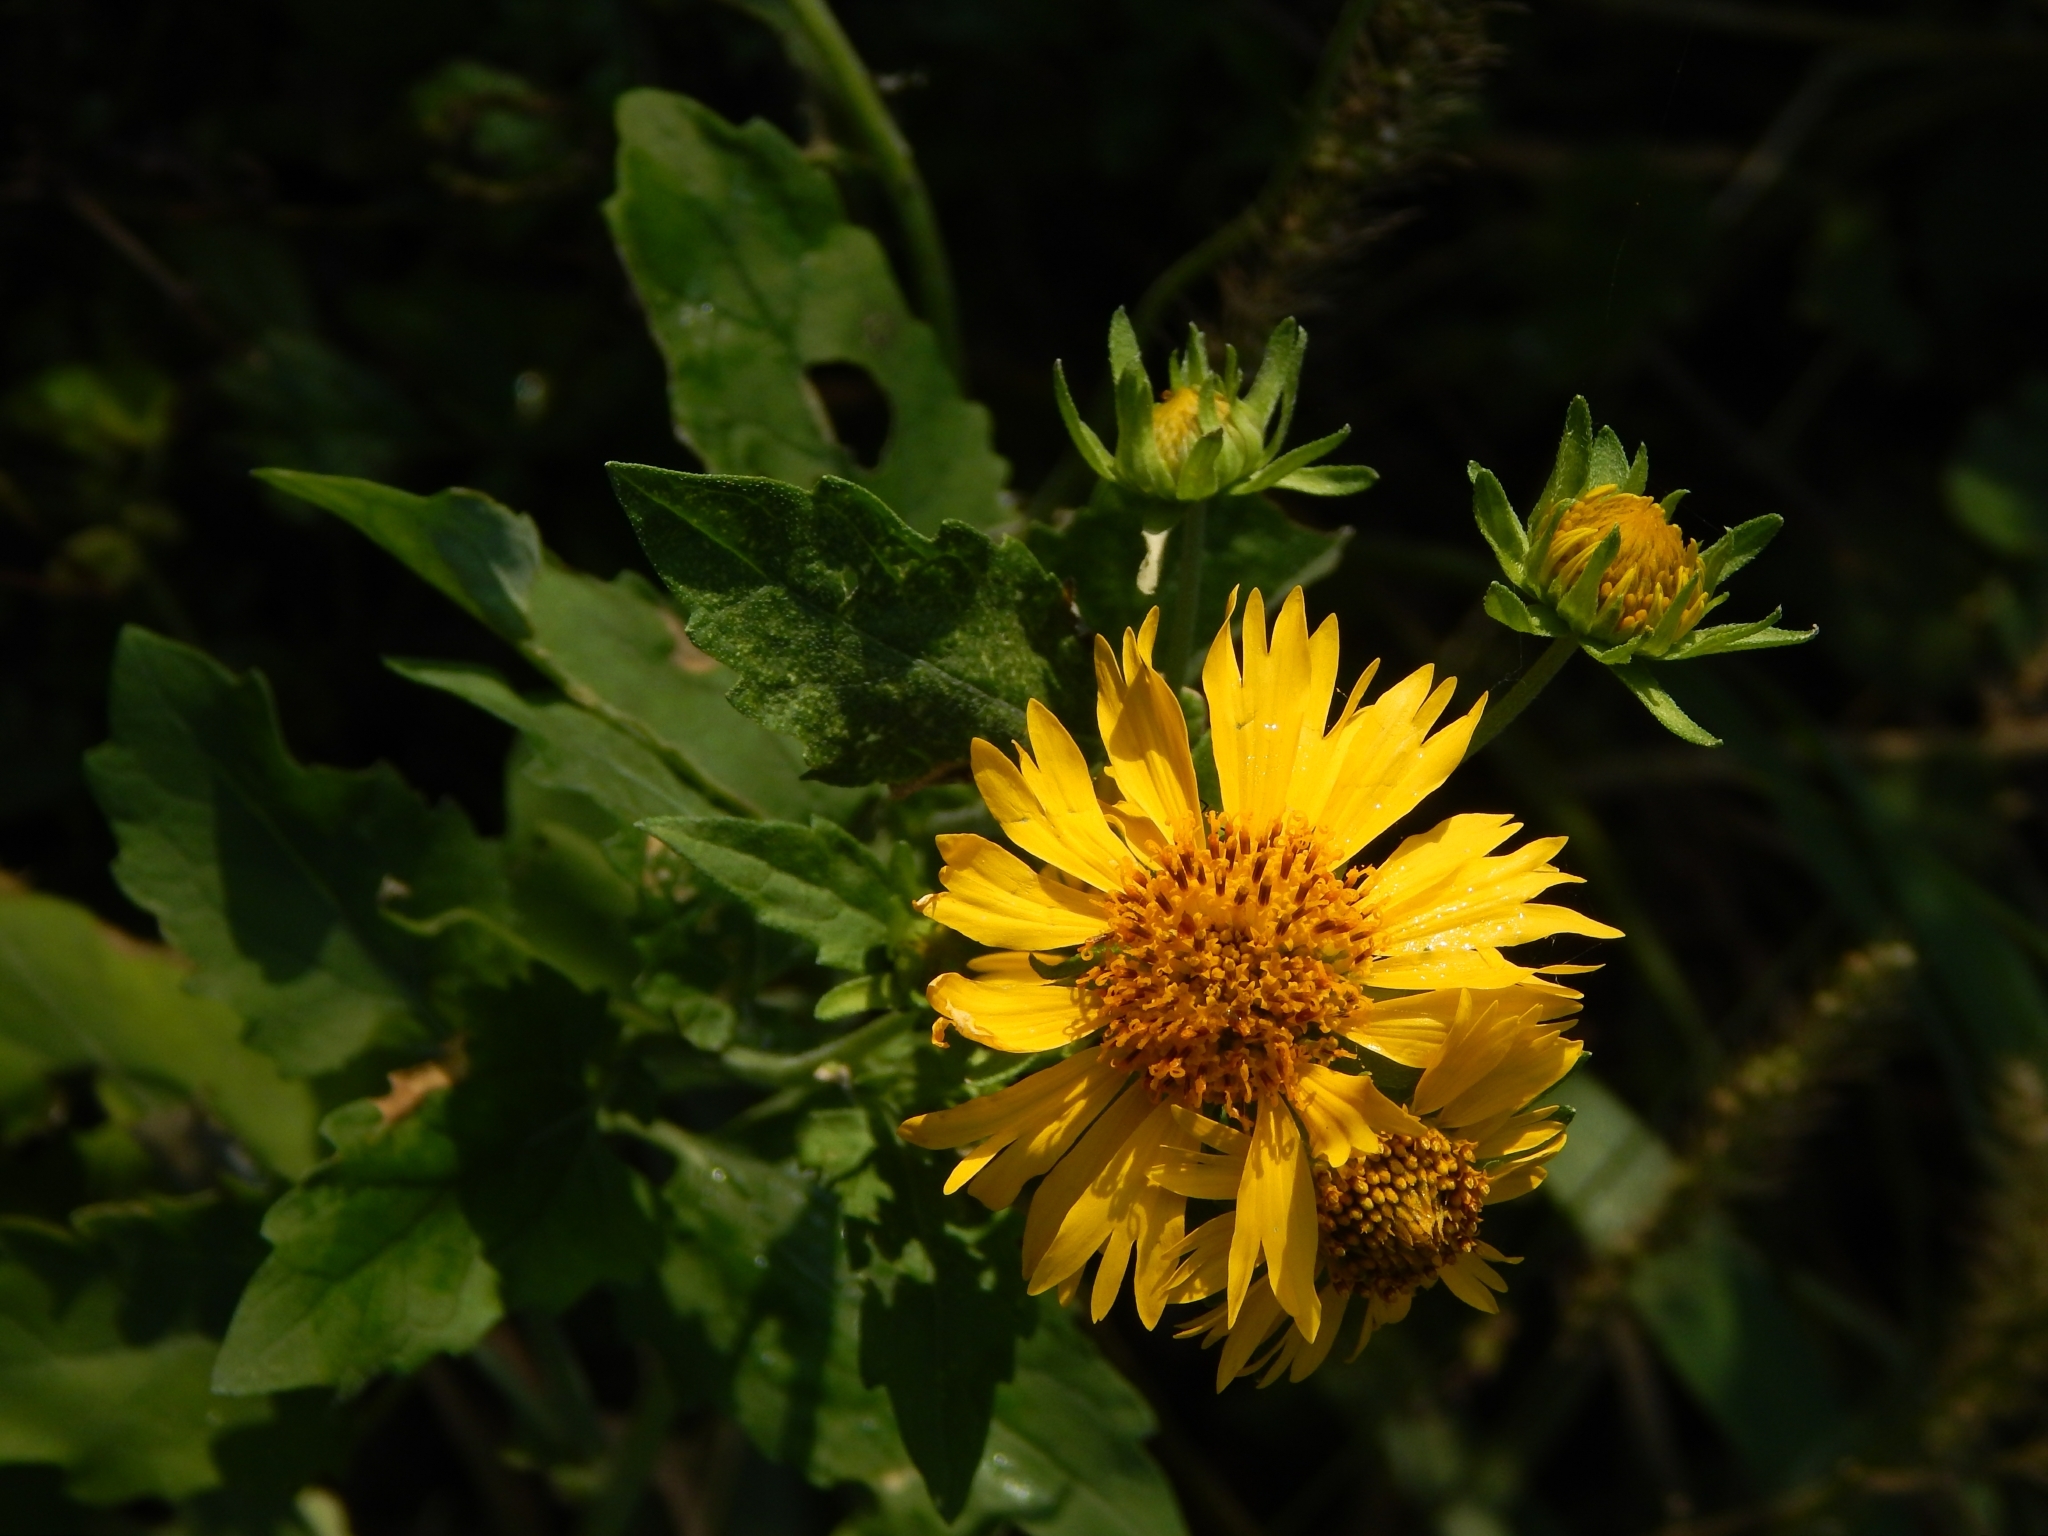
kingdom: Plantae
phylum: Tracheophyta
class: Magnoliopsida
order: Asterales
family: Asteraceae
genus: Verbesina
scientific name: Verbesina encelioides
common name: Golden crownbeard
